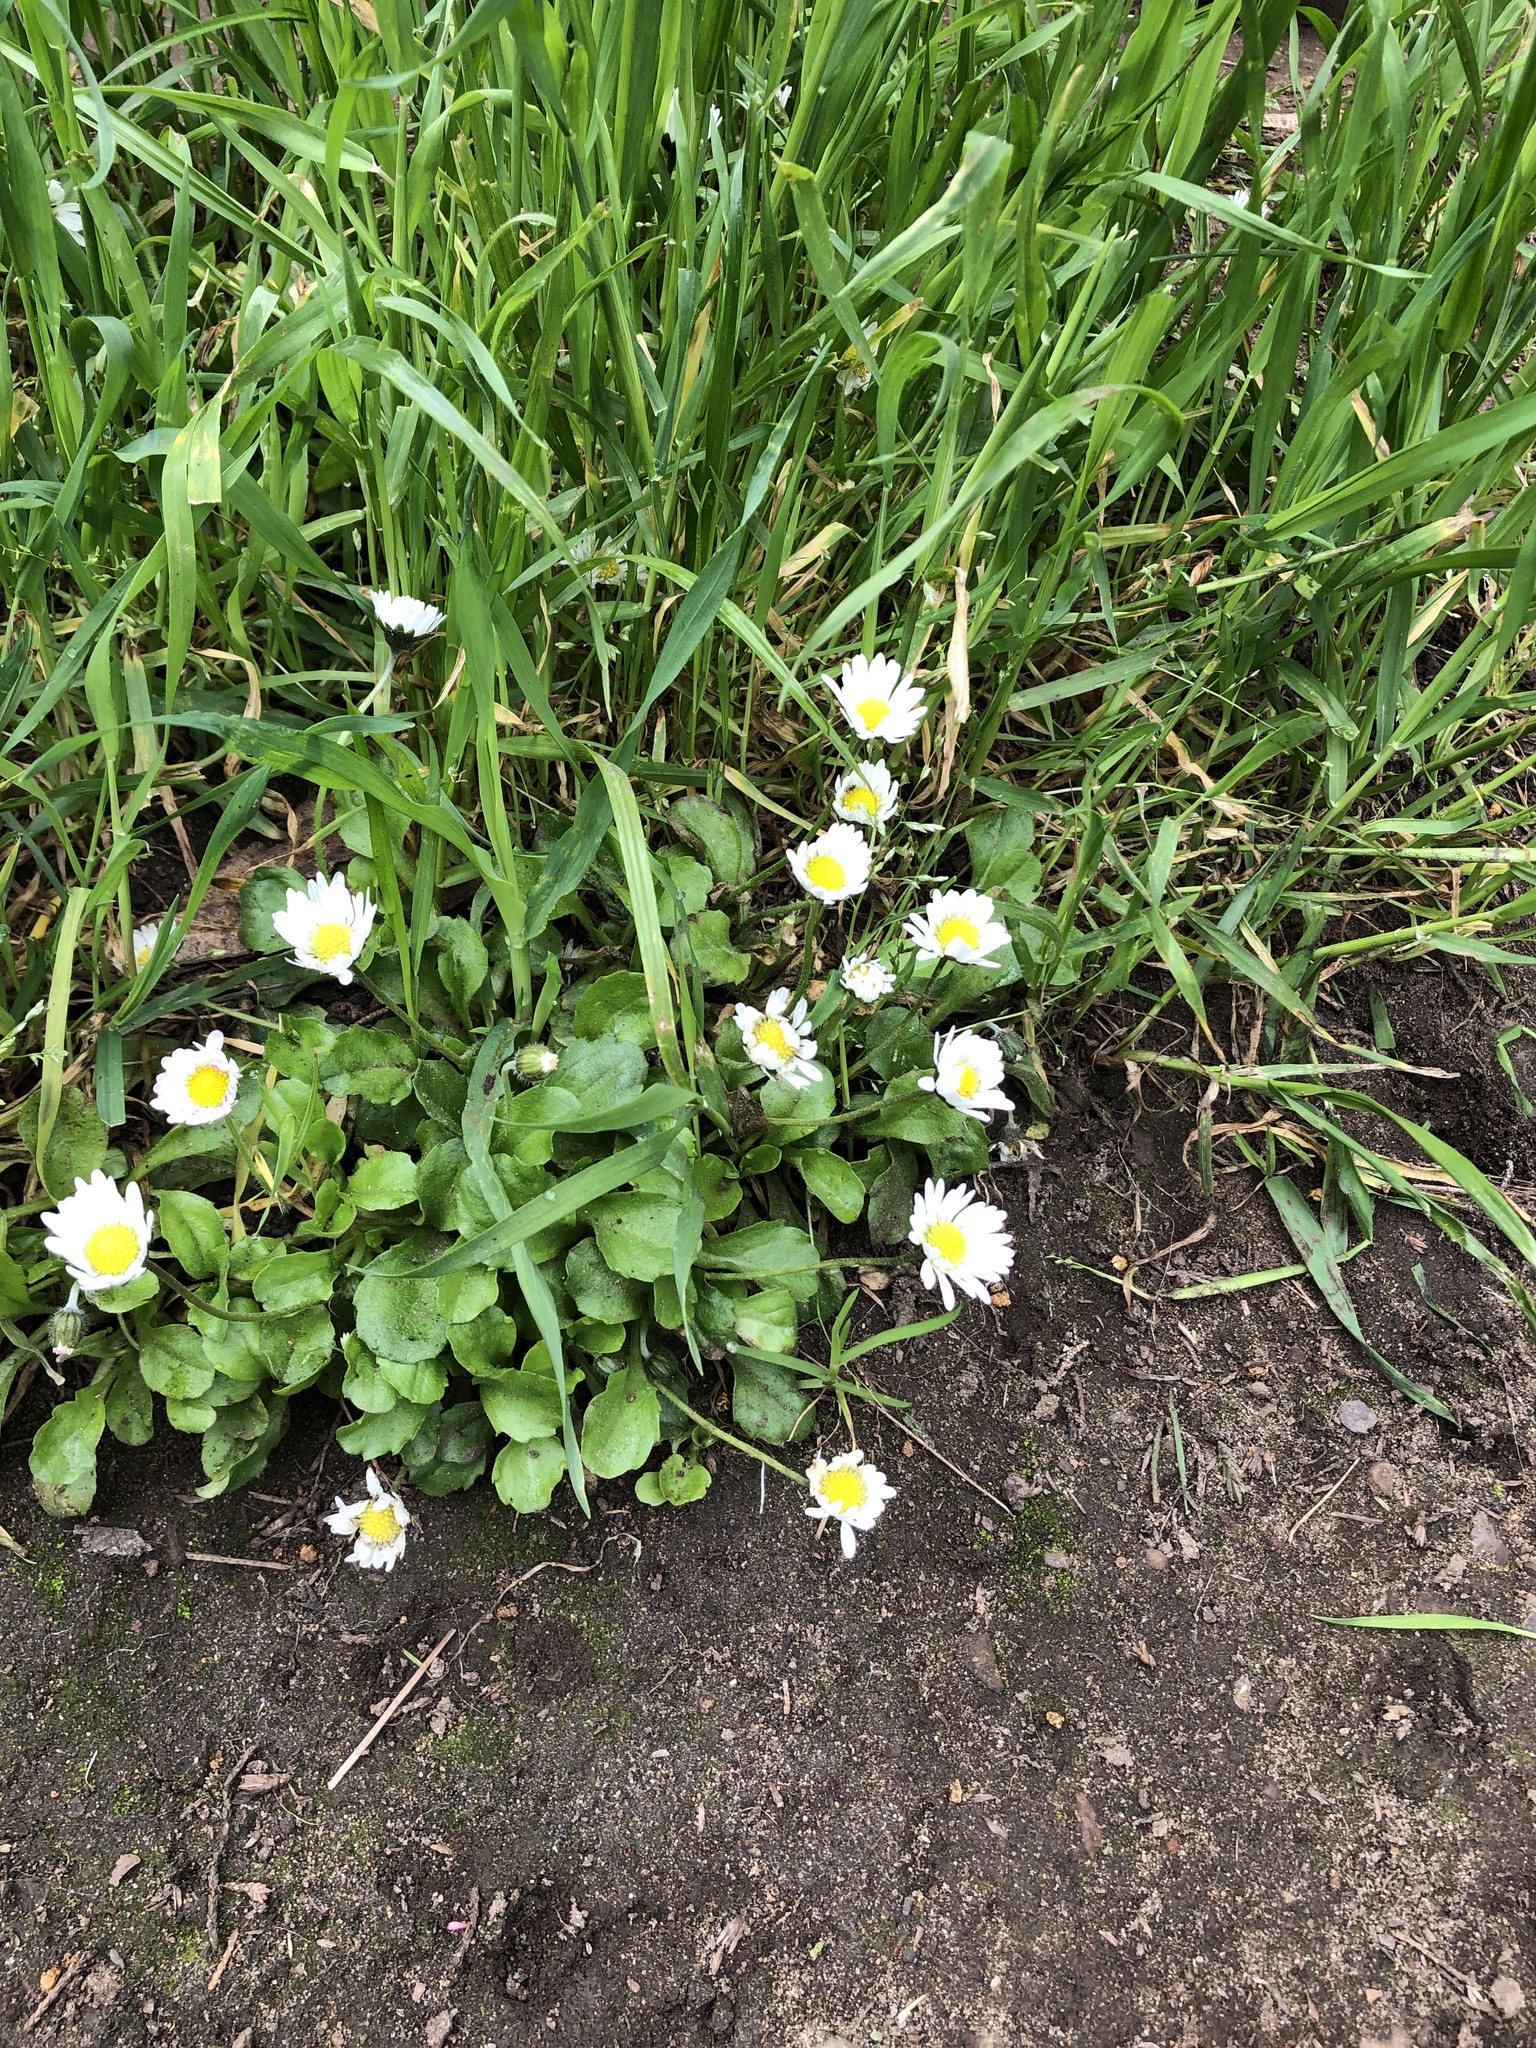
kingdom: Plantae
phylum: Tracheophyta
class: Magnoliopsida
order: Asterales
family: Asteraceae
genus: Bellis
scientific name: Bellis perennis
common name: Lawndaisy
